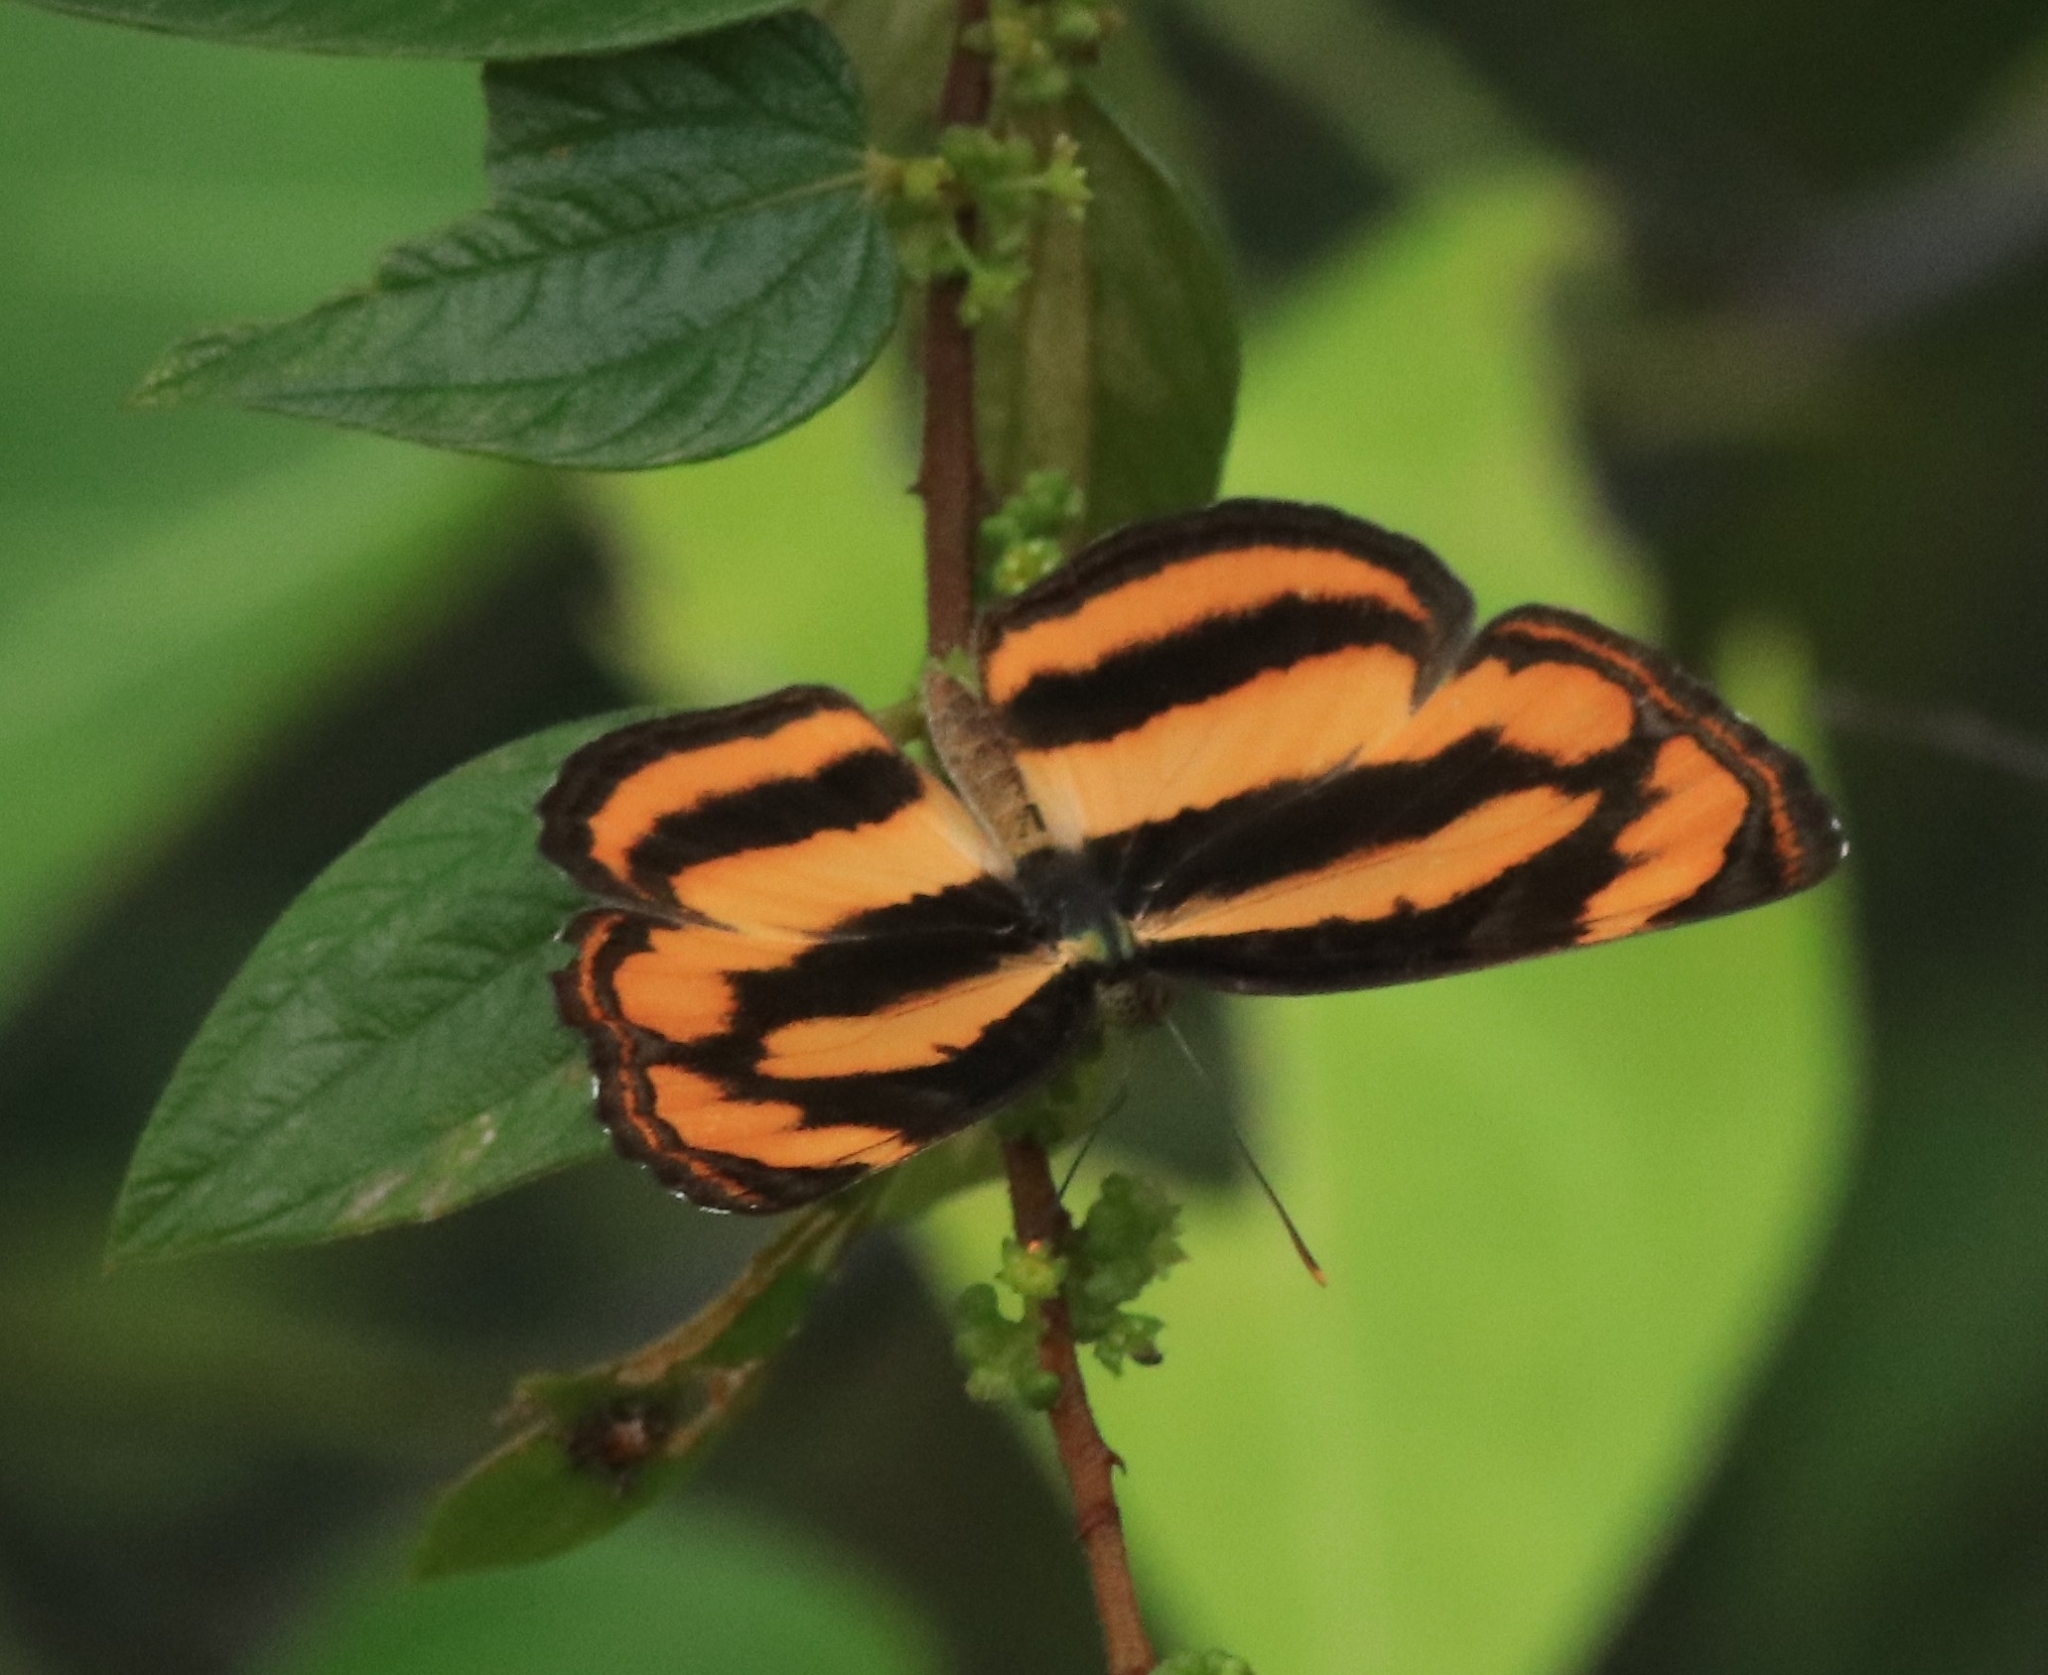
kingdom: Animalia
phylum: Arthropoda
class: Insecta
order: Lepidoptera
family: Nymphalidae
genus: Pantoporia
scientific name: Pantoporia hordonia
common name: Common lascar
